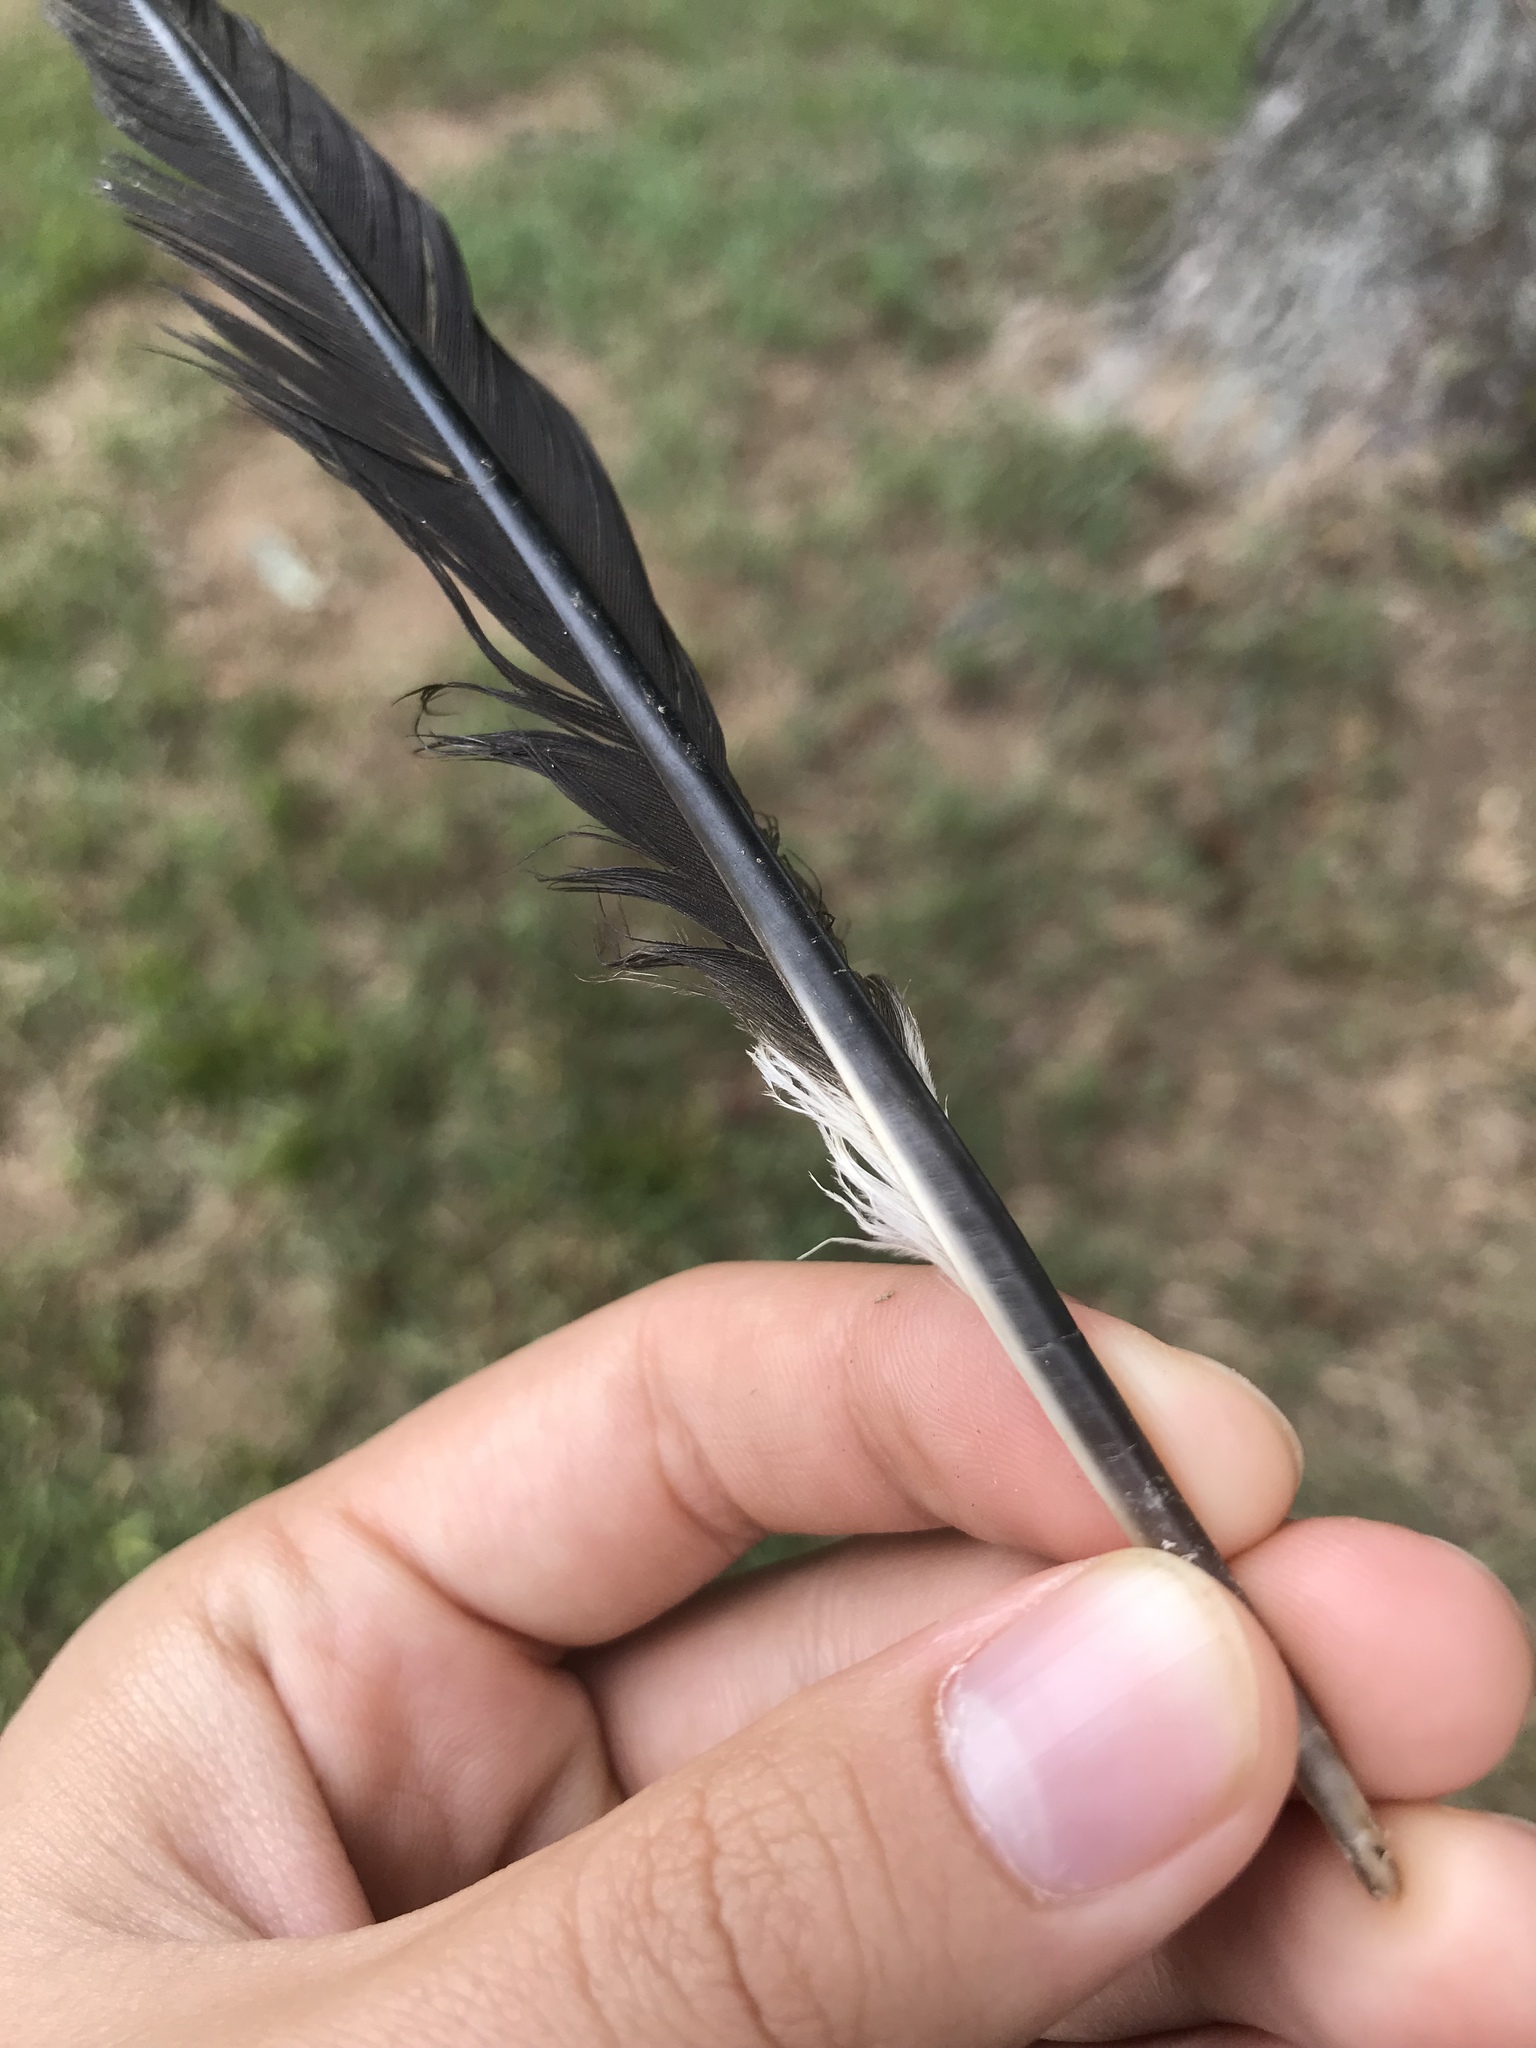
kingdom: Animalia
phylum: Chordata
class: Aves
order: Piciformes
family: Picidae
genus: Dryocopus
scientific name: Dryocopus pileatus
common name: Pileated woodpecker
